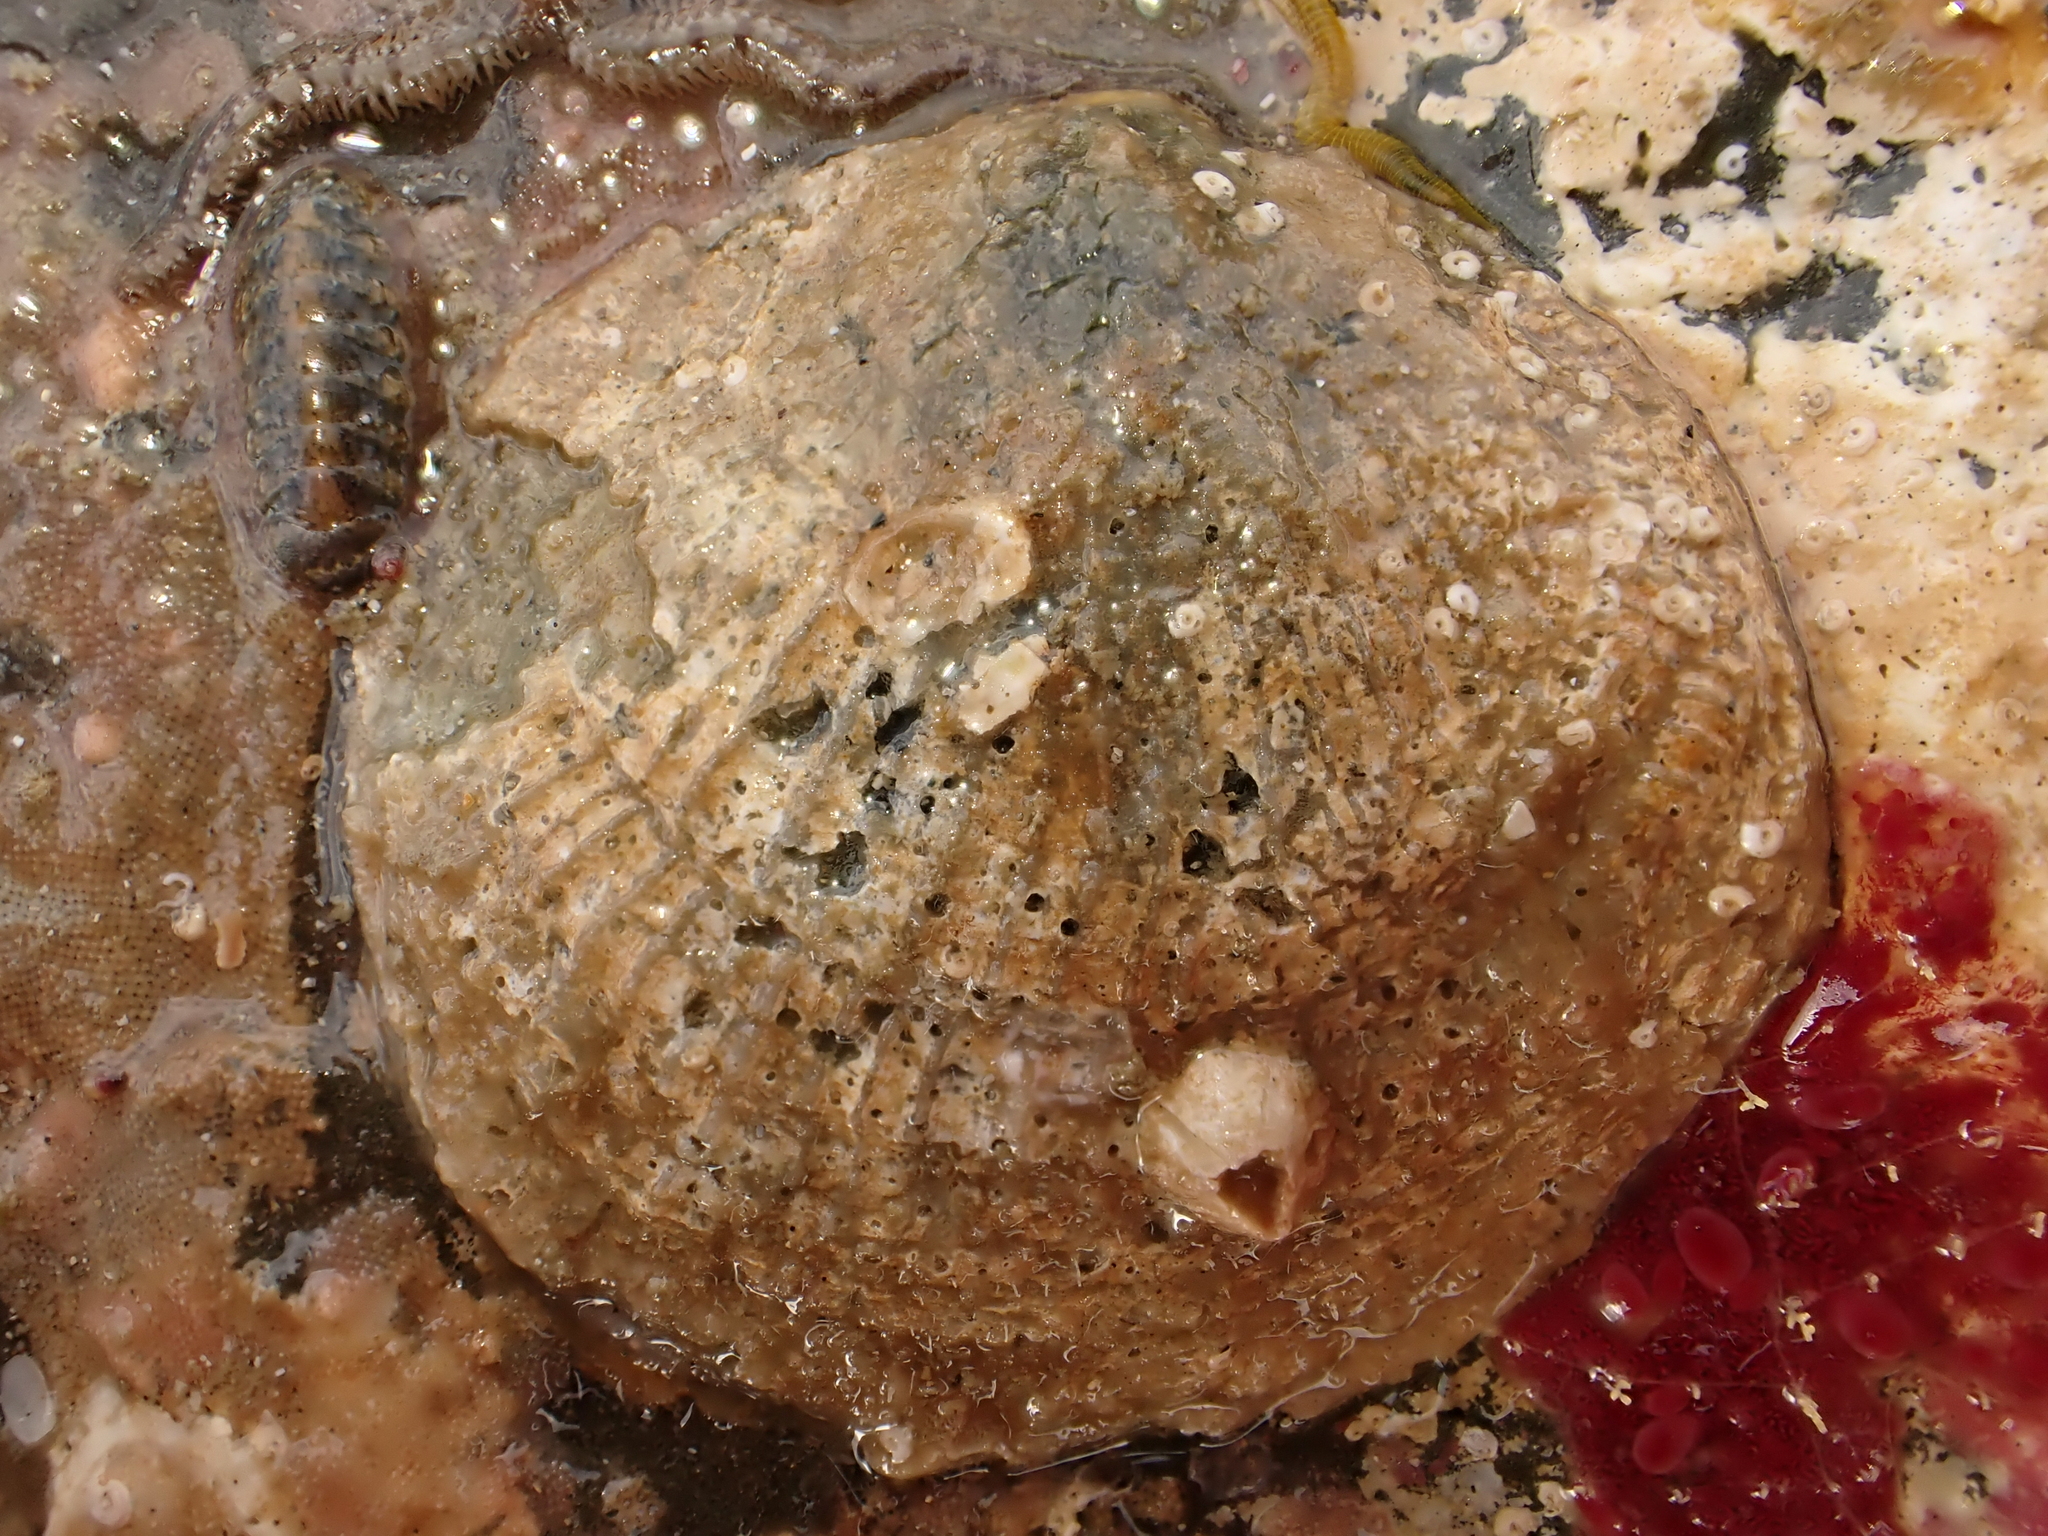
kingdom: Animalia
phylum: Mollusca
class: Bivalvia
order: Pectinida
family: Anomiidae
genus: Monia
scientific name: Monia zelandica
